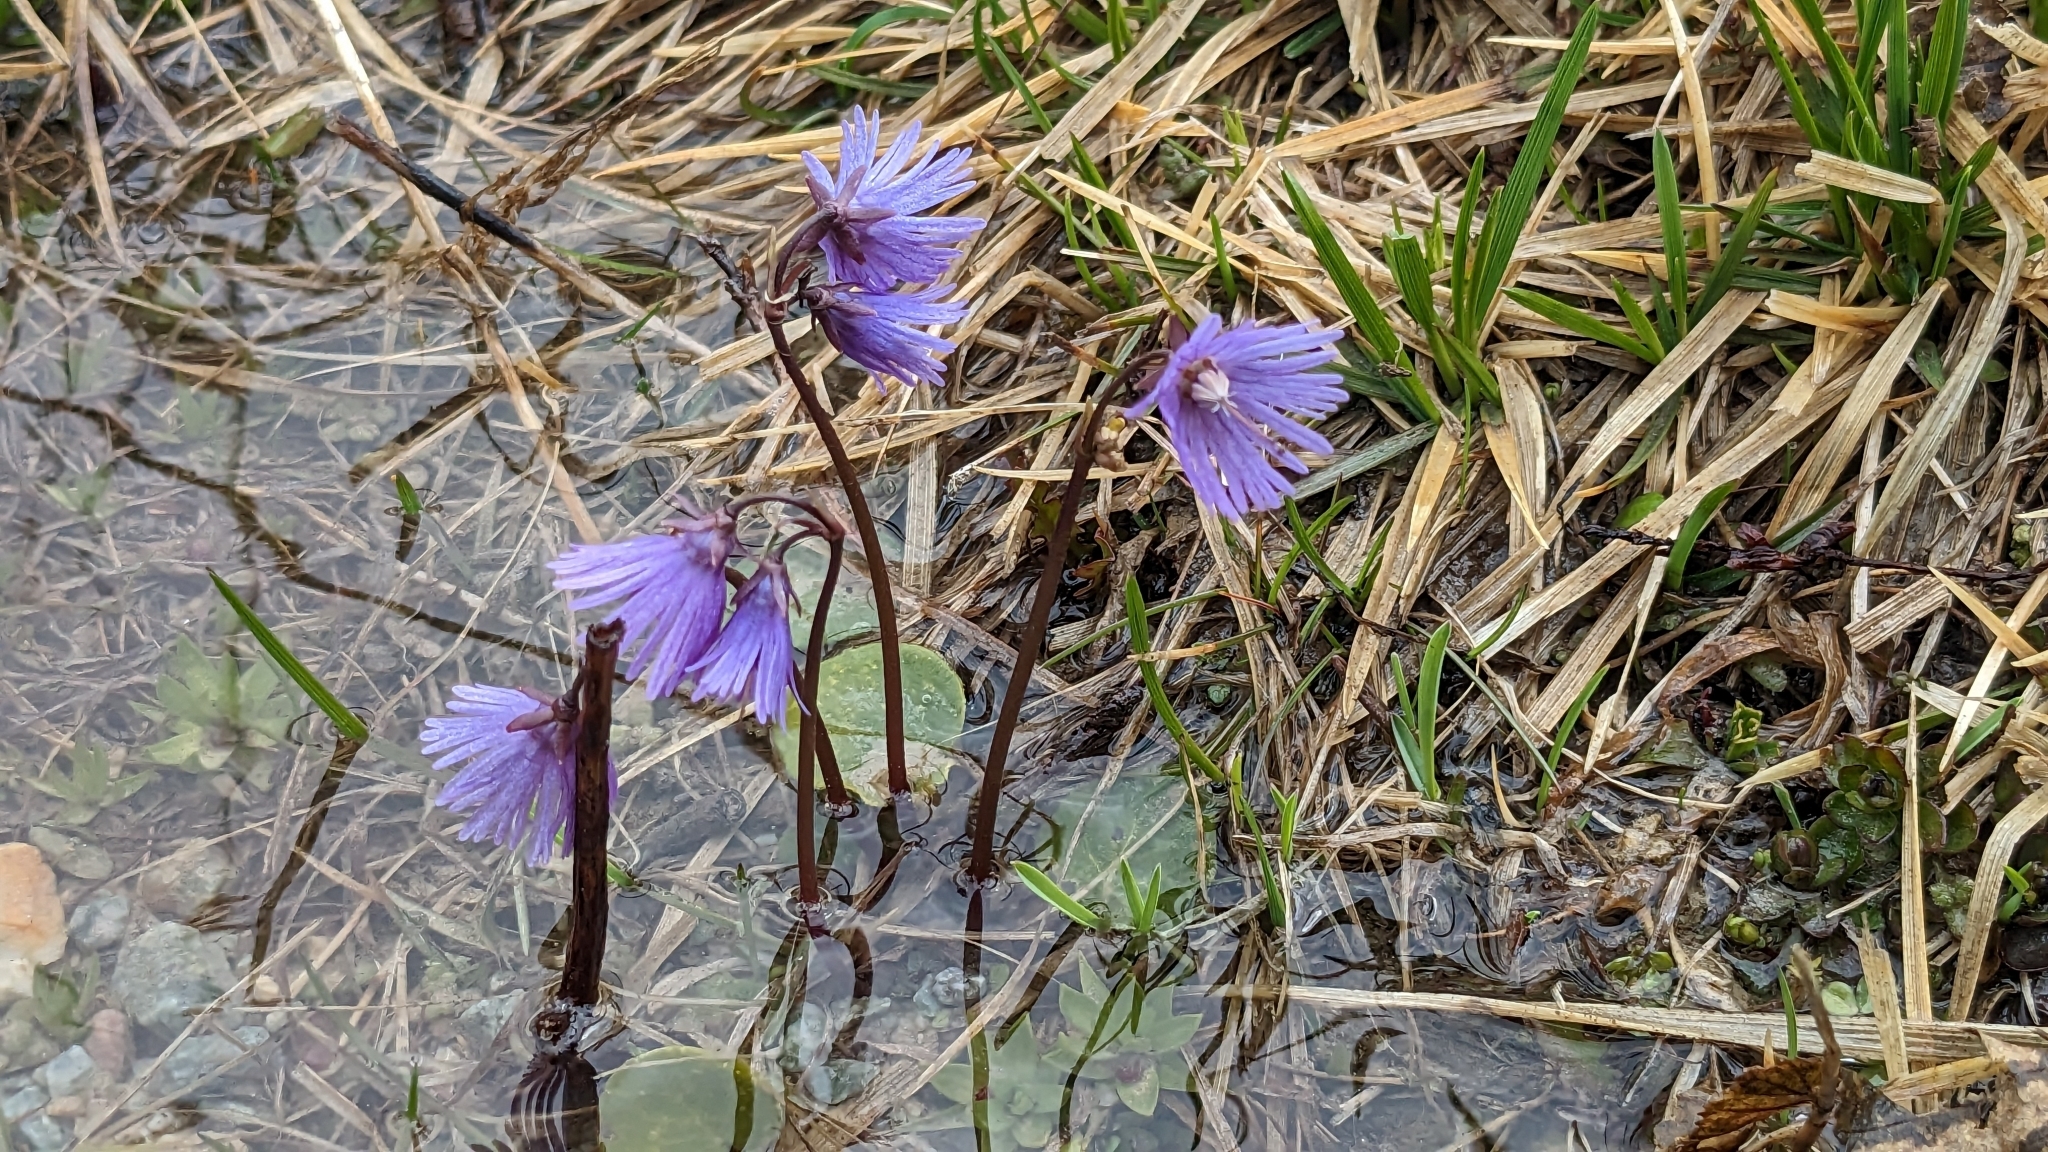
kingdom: Plantae
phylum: Tracheophyta
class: Magnoliopsida
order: Ericales
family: Primulaceae
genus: Soldanella
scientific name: Soldanella alpina
